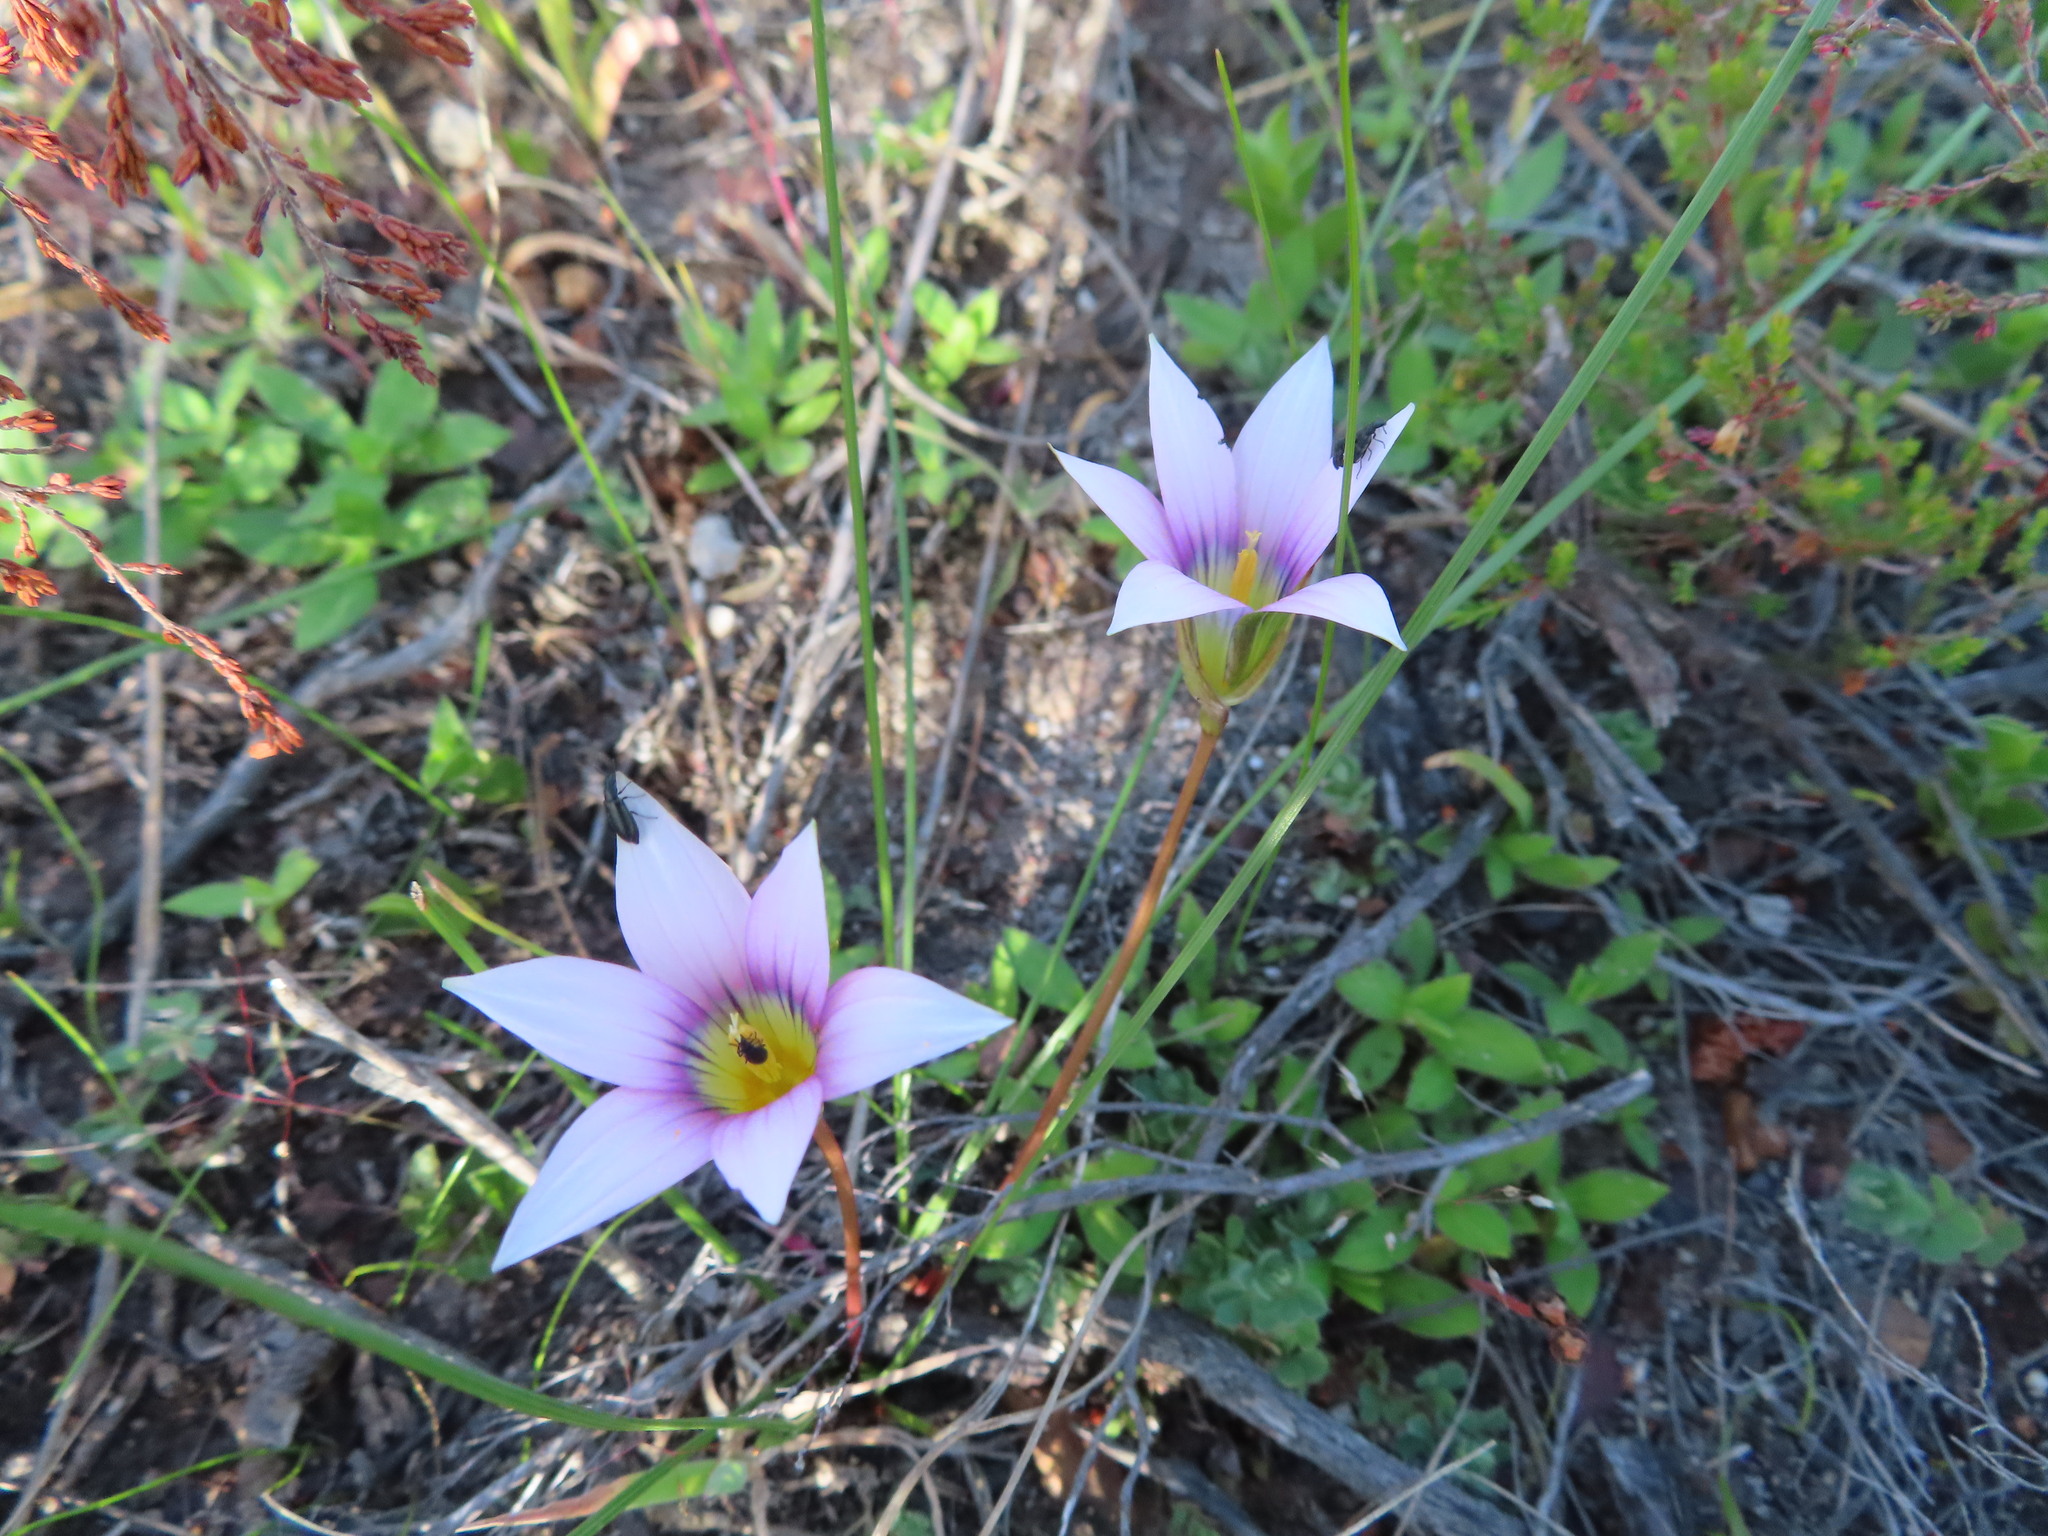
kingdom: Plantae
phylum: Tracheophyta
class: Liliopsida
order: Asparagales
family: Iridaceae
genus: Romulea
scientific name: Romulea rosea
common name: Oniongrass
